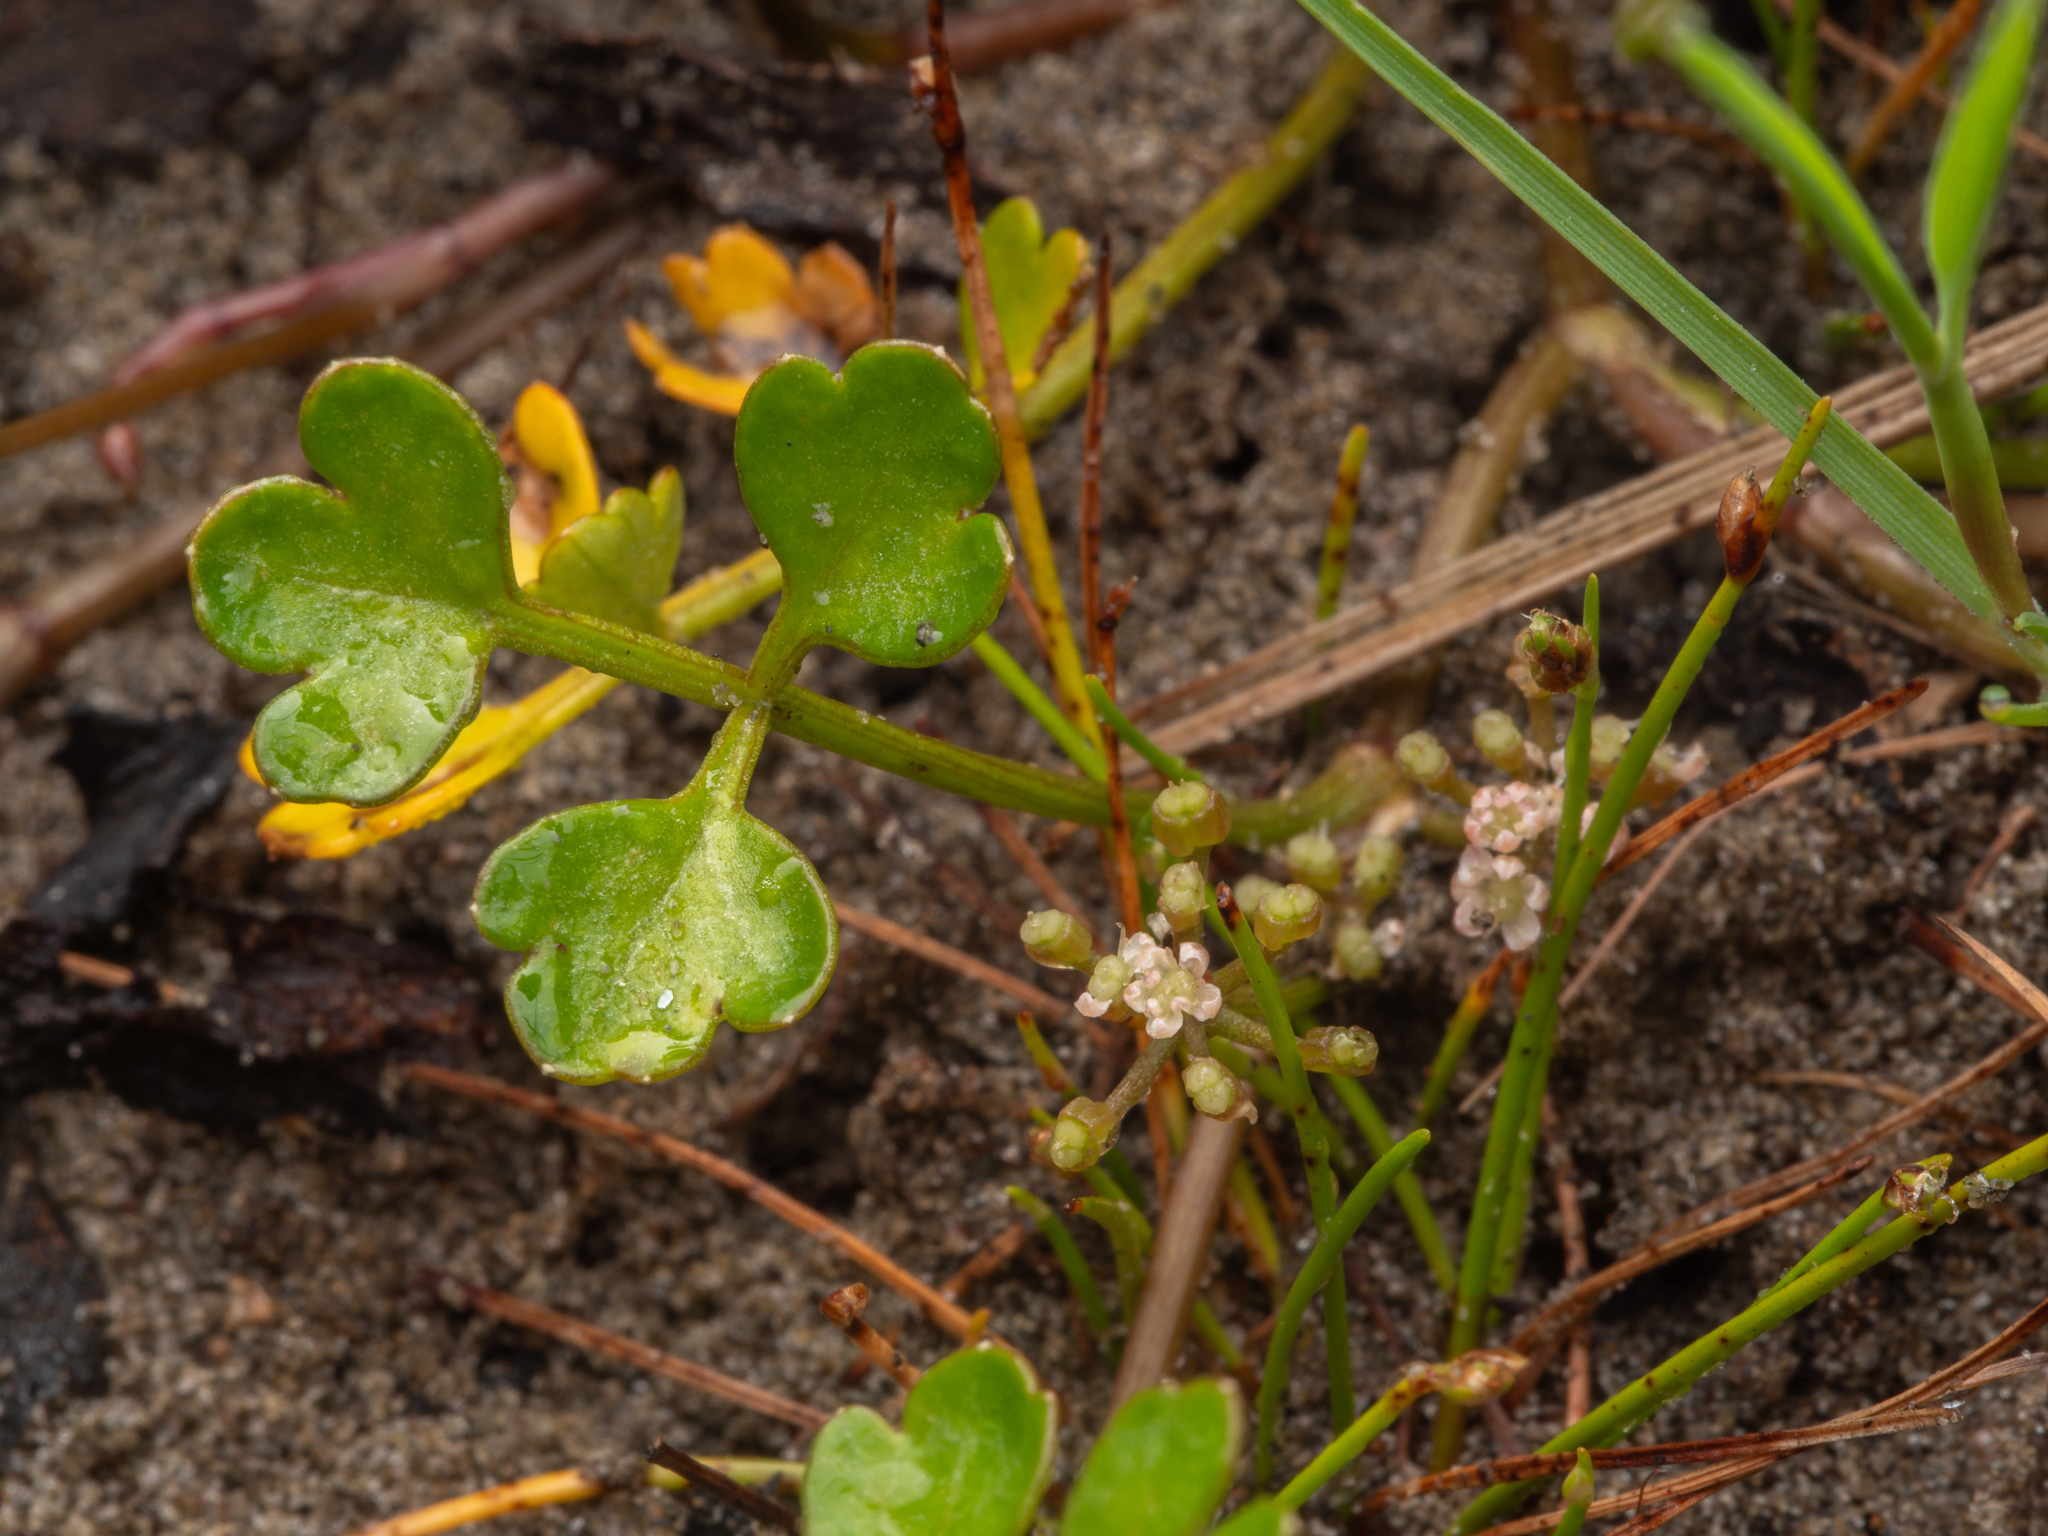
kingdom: Plantae
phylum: Tracheophyta
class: Magnoliopsida
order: Apiales
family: Apiaceae
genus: Apium
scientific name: Apium prostratum
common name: Prostrate marshwort
